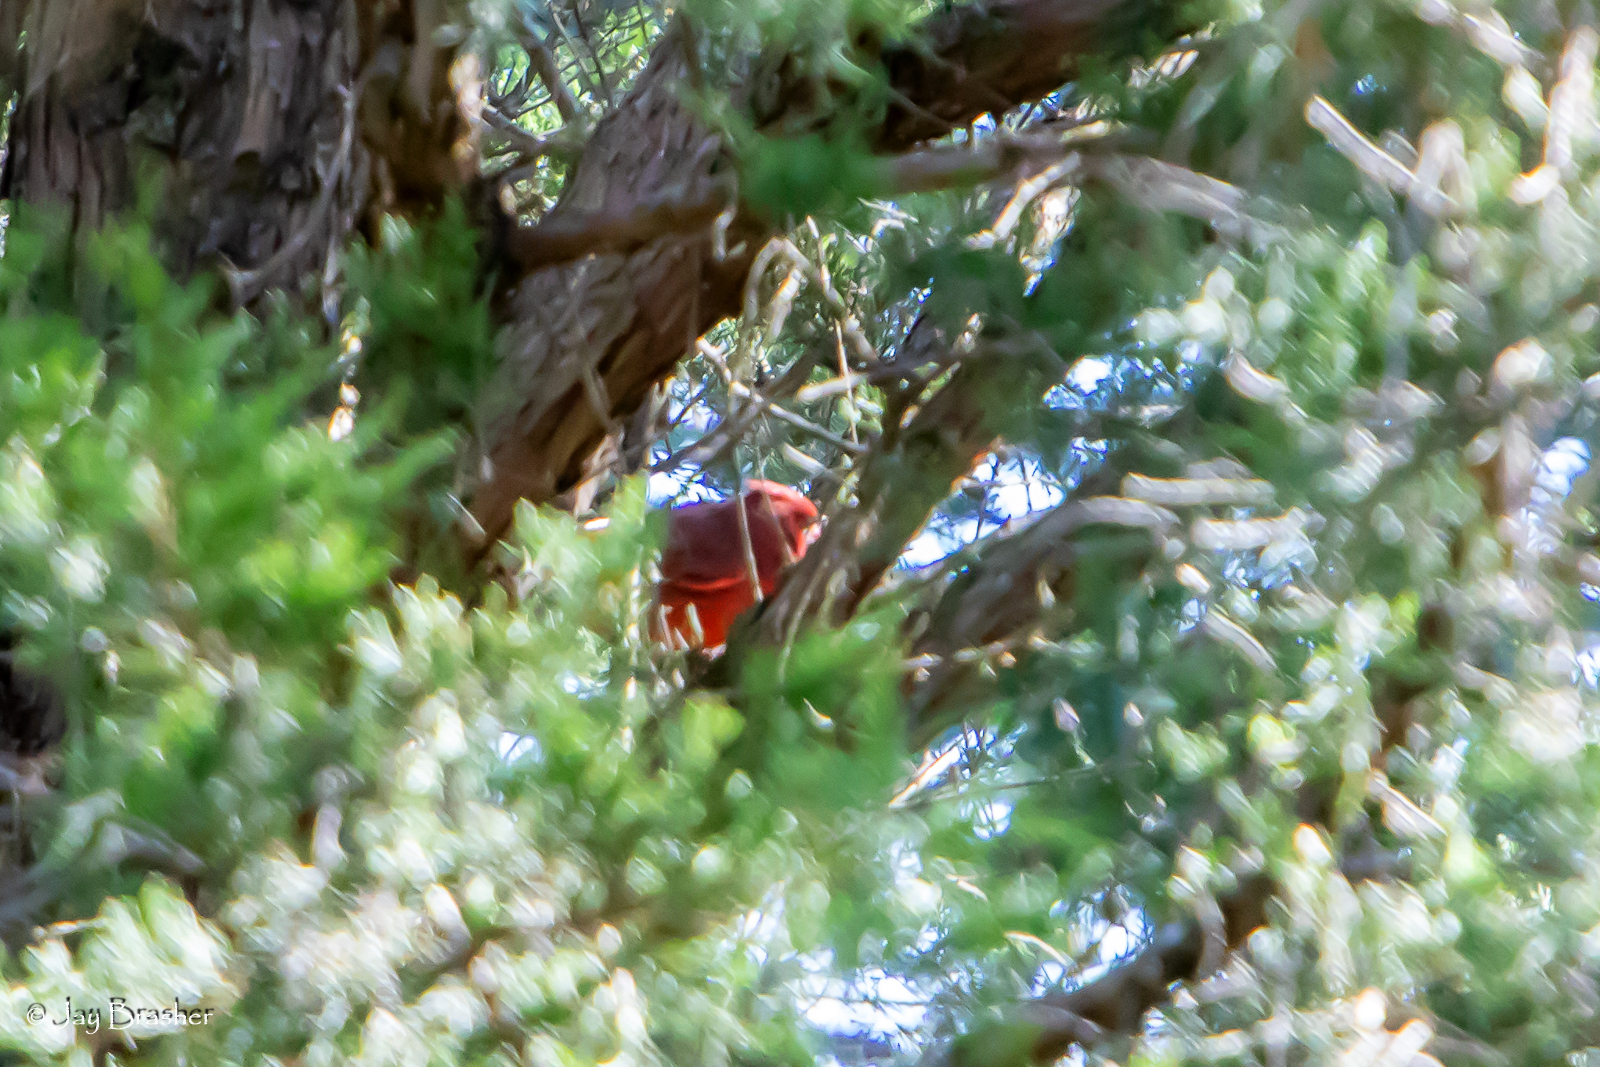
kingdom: Animalia
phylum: Chordata
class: Aves
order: Passeriformes
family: Cardinalidae
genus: Cardinalis
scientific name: Cardinalis cardinalis
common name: Northern cardinal
